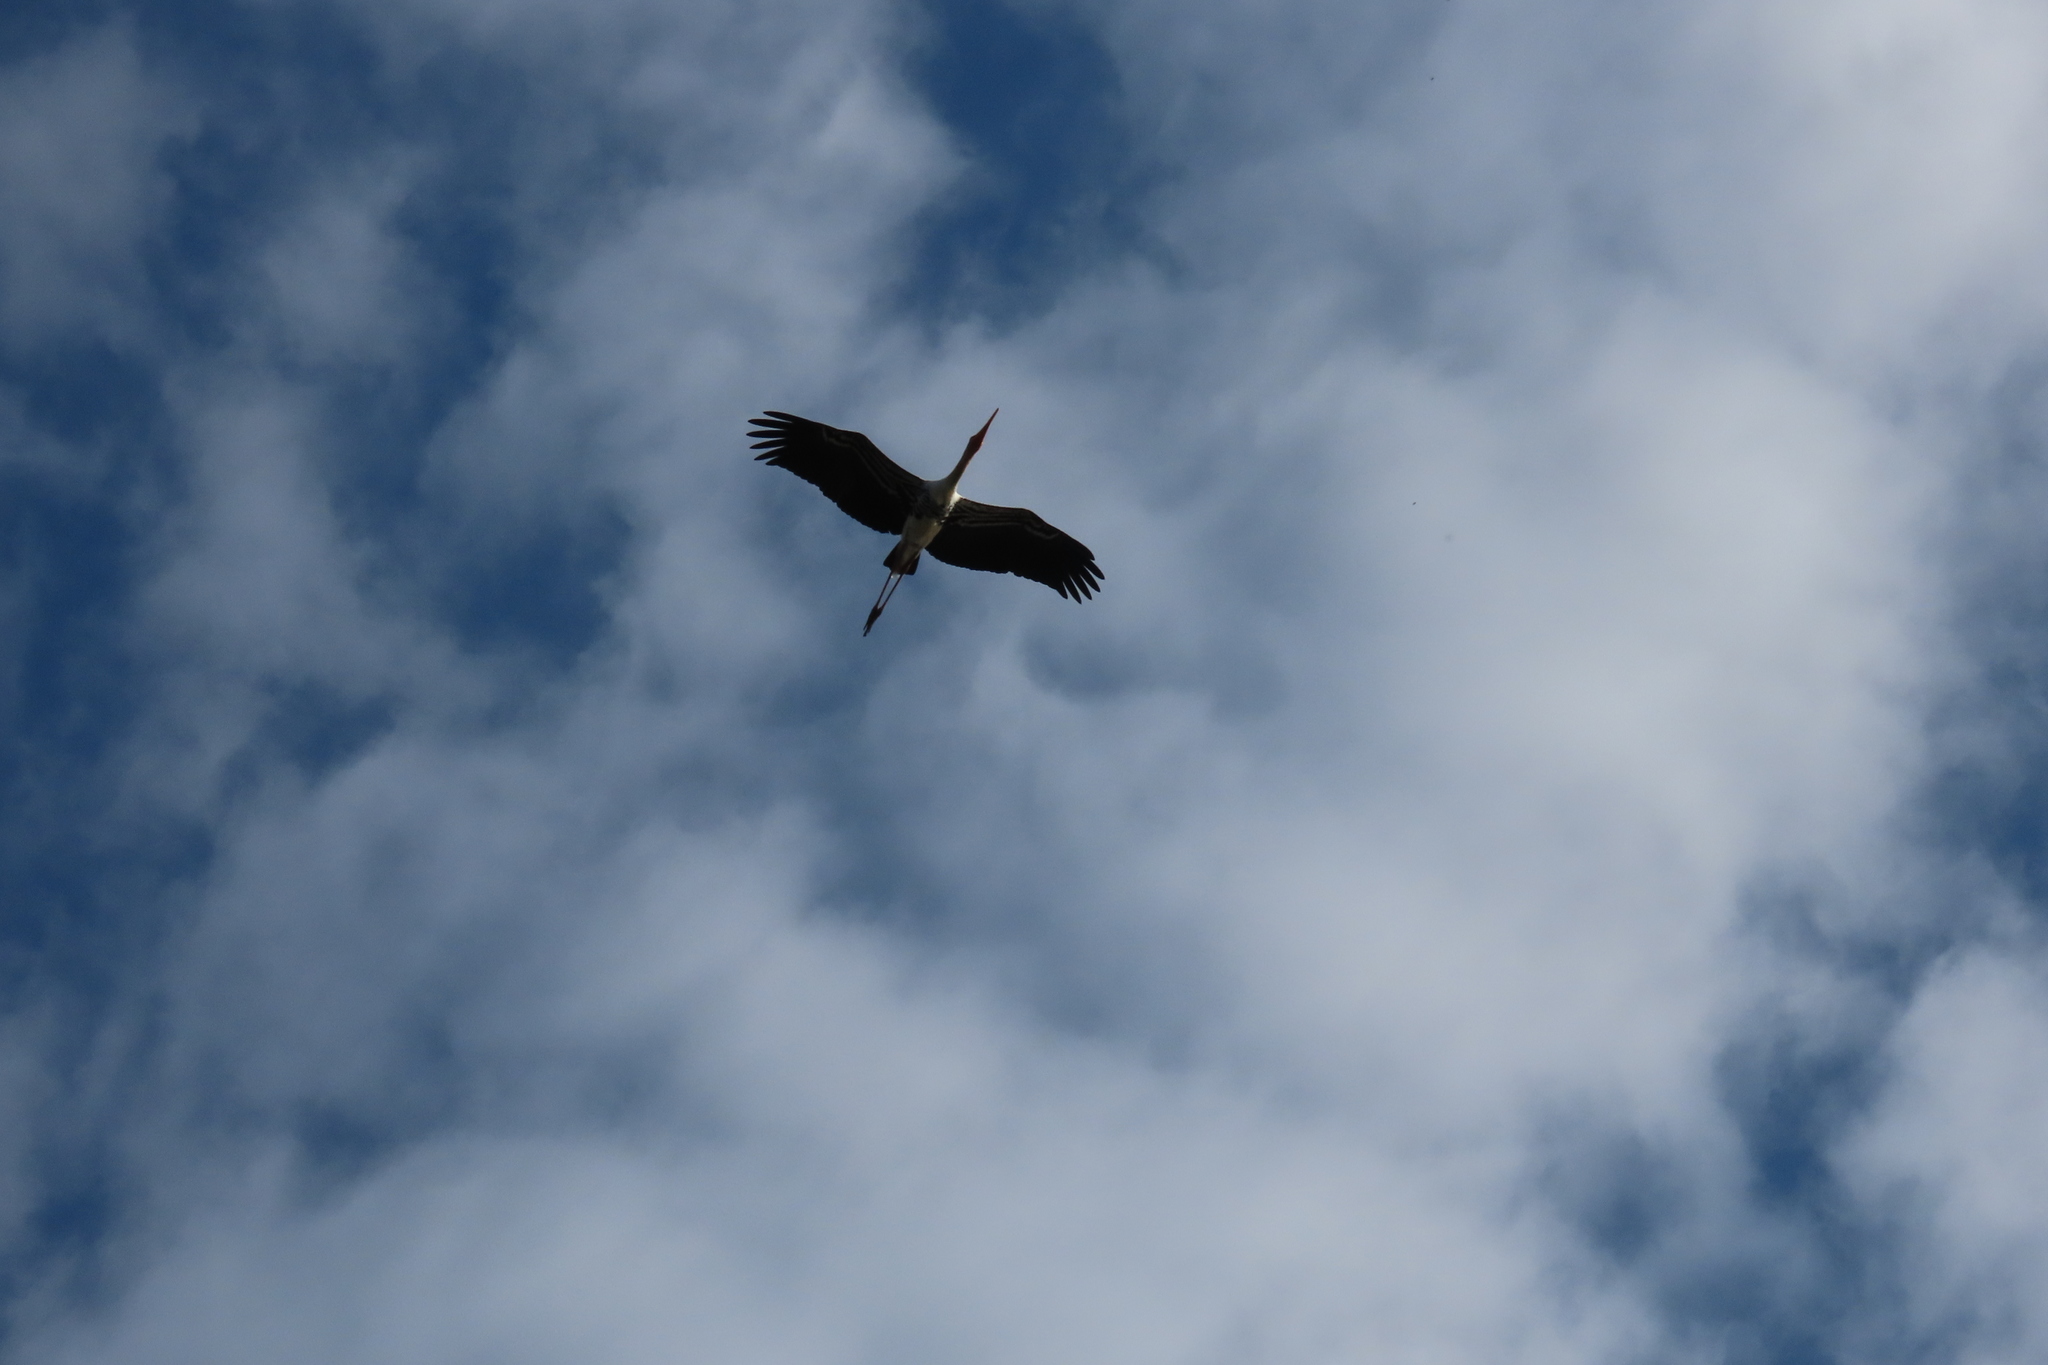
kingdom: Animalia
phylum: Chordata
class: Aves
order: Ciconiiformes
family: Ciconiidae
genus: Mycteria
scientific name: Mycteria leucocephala
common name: Painted stork
